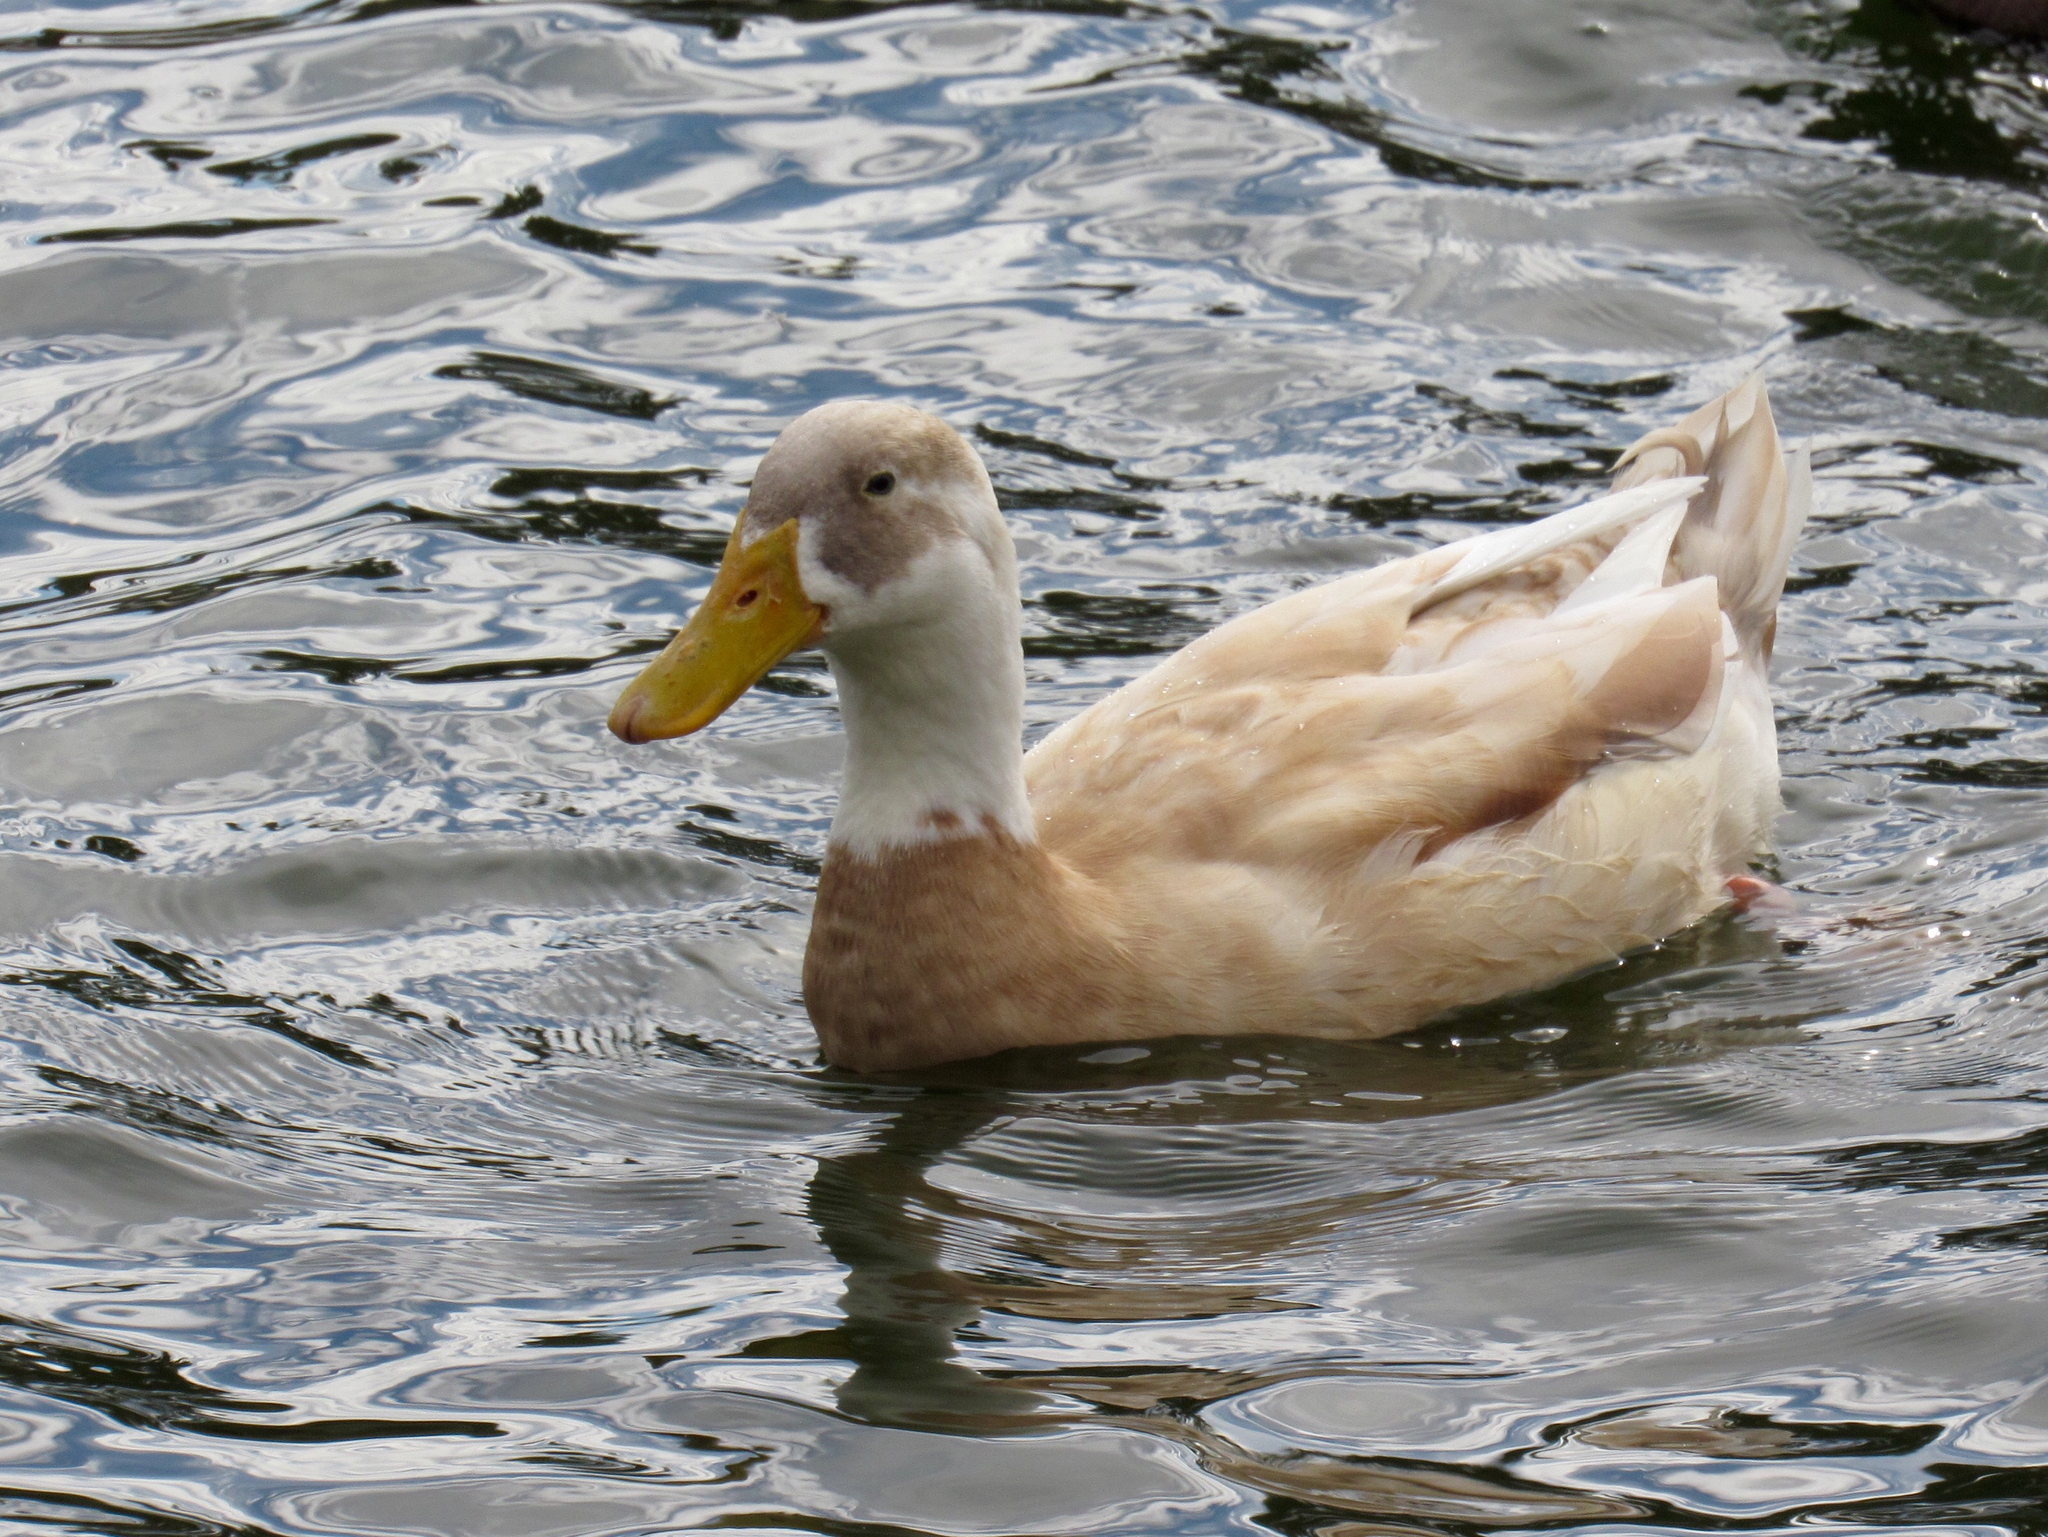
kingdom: Animalia
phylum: Chordata
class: Aves
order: Anseriformes
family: Anatidae
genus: Anas
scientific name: Anas platyrhynchos
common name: Mallard
